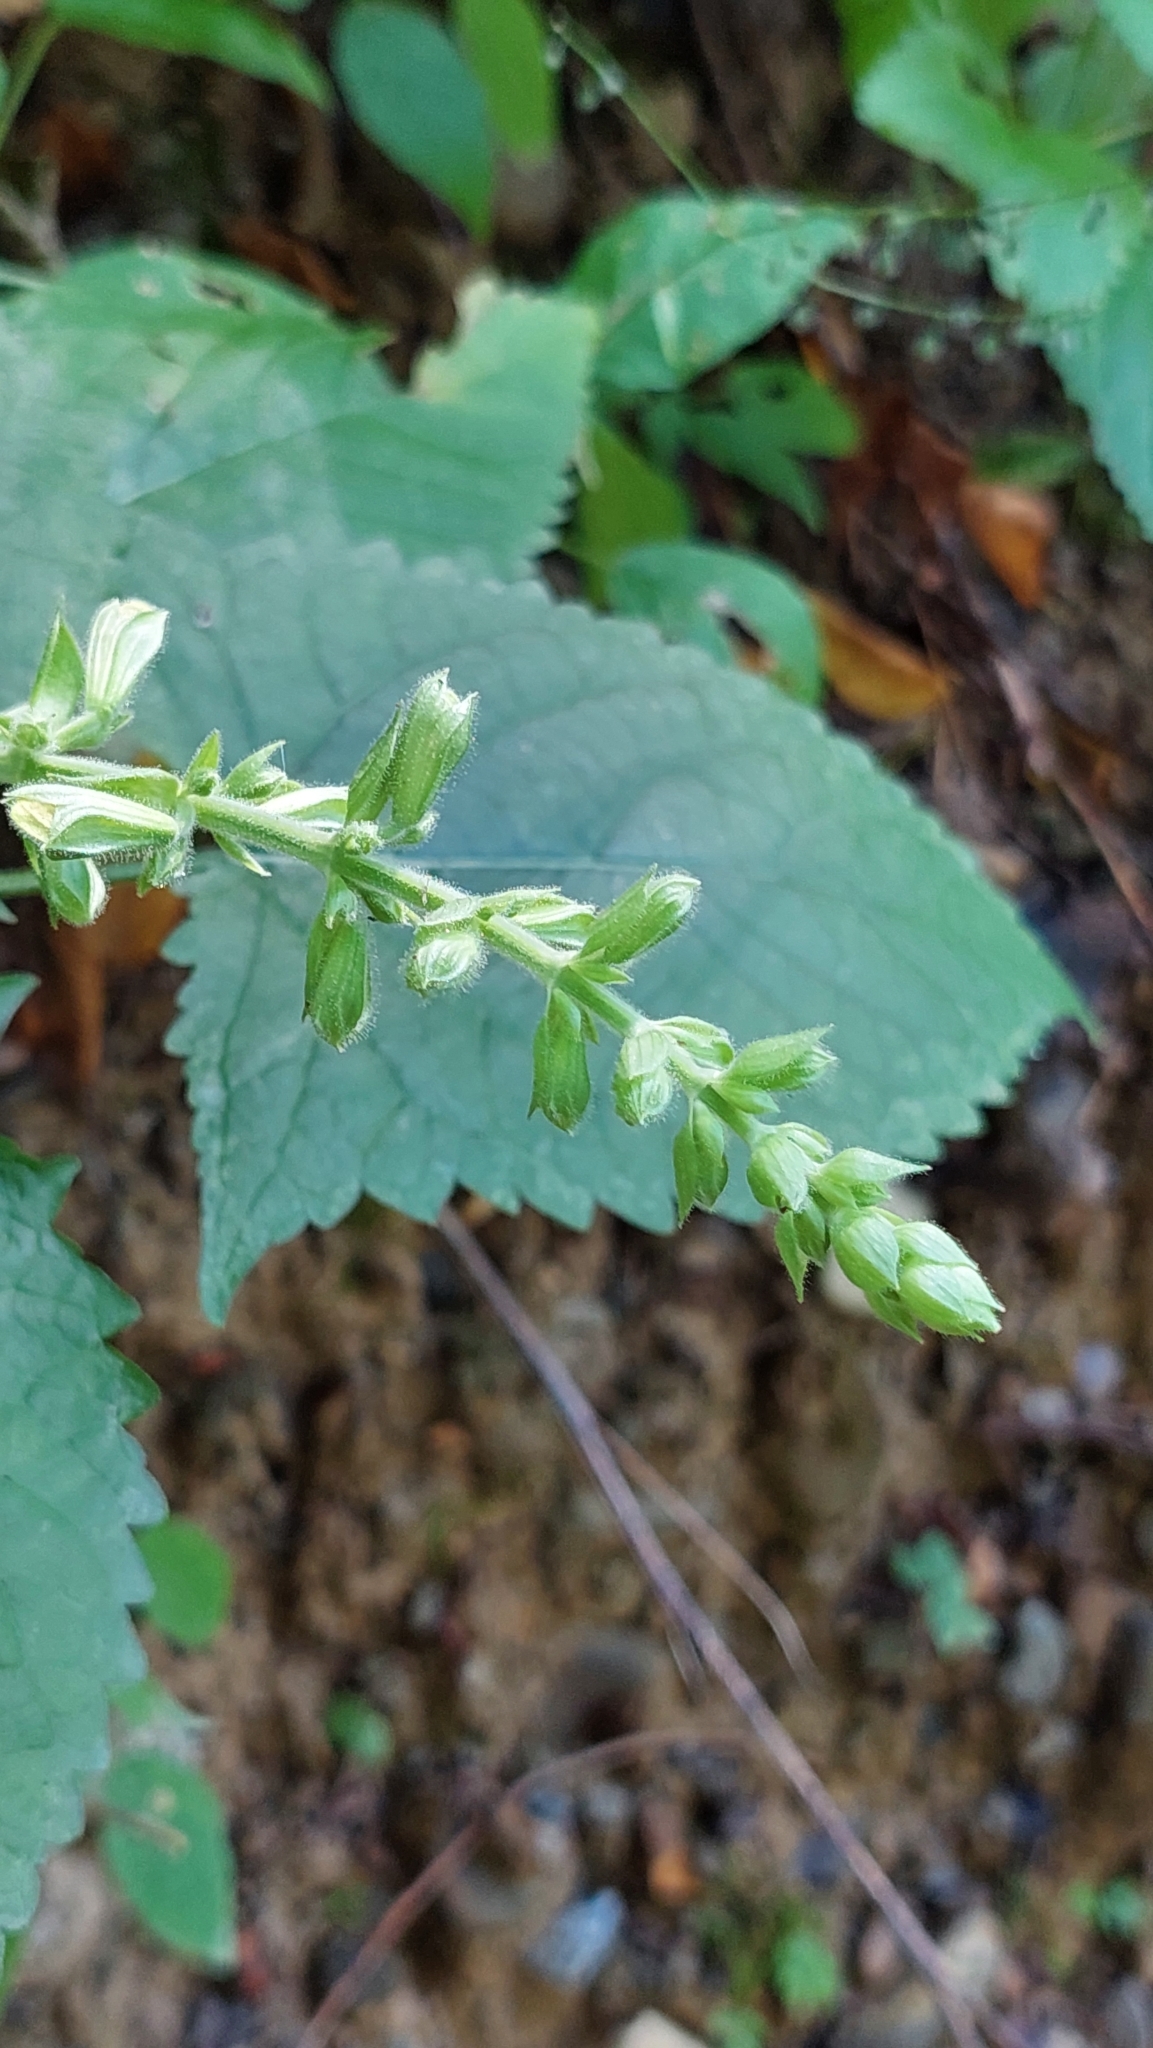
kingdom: Plantae
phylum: Tracheophyta
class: Magnoliopsida
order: Lamiales
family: Lamiaceae
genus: Salvia
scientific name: Salvia glutinosa
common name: Sticky clary
